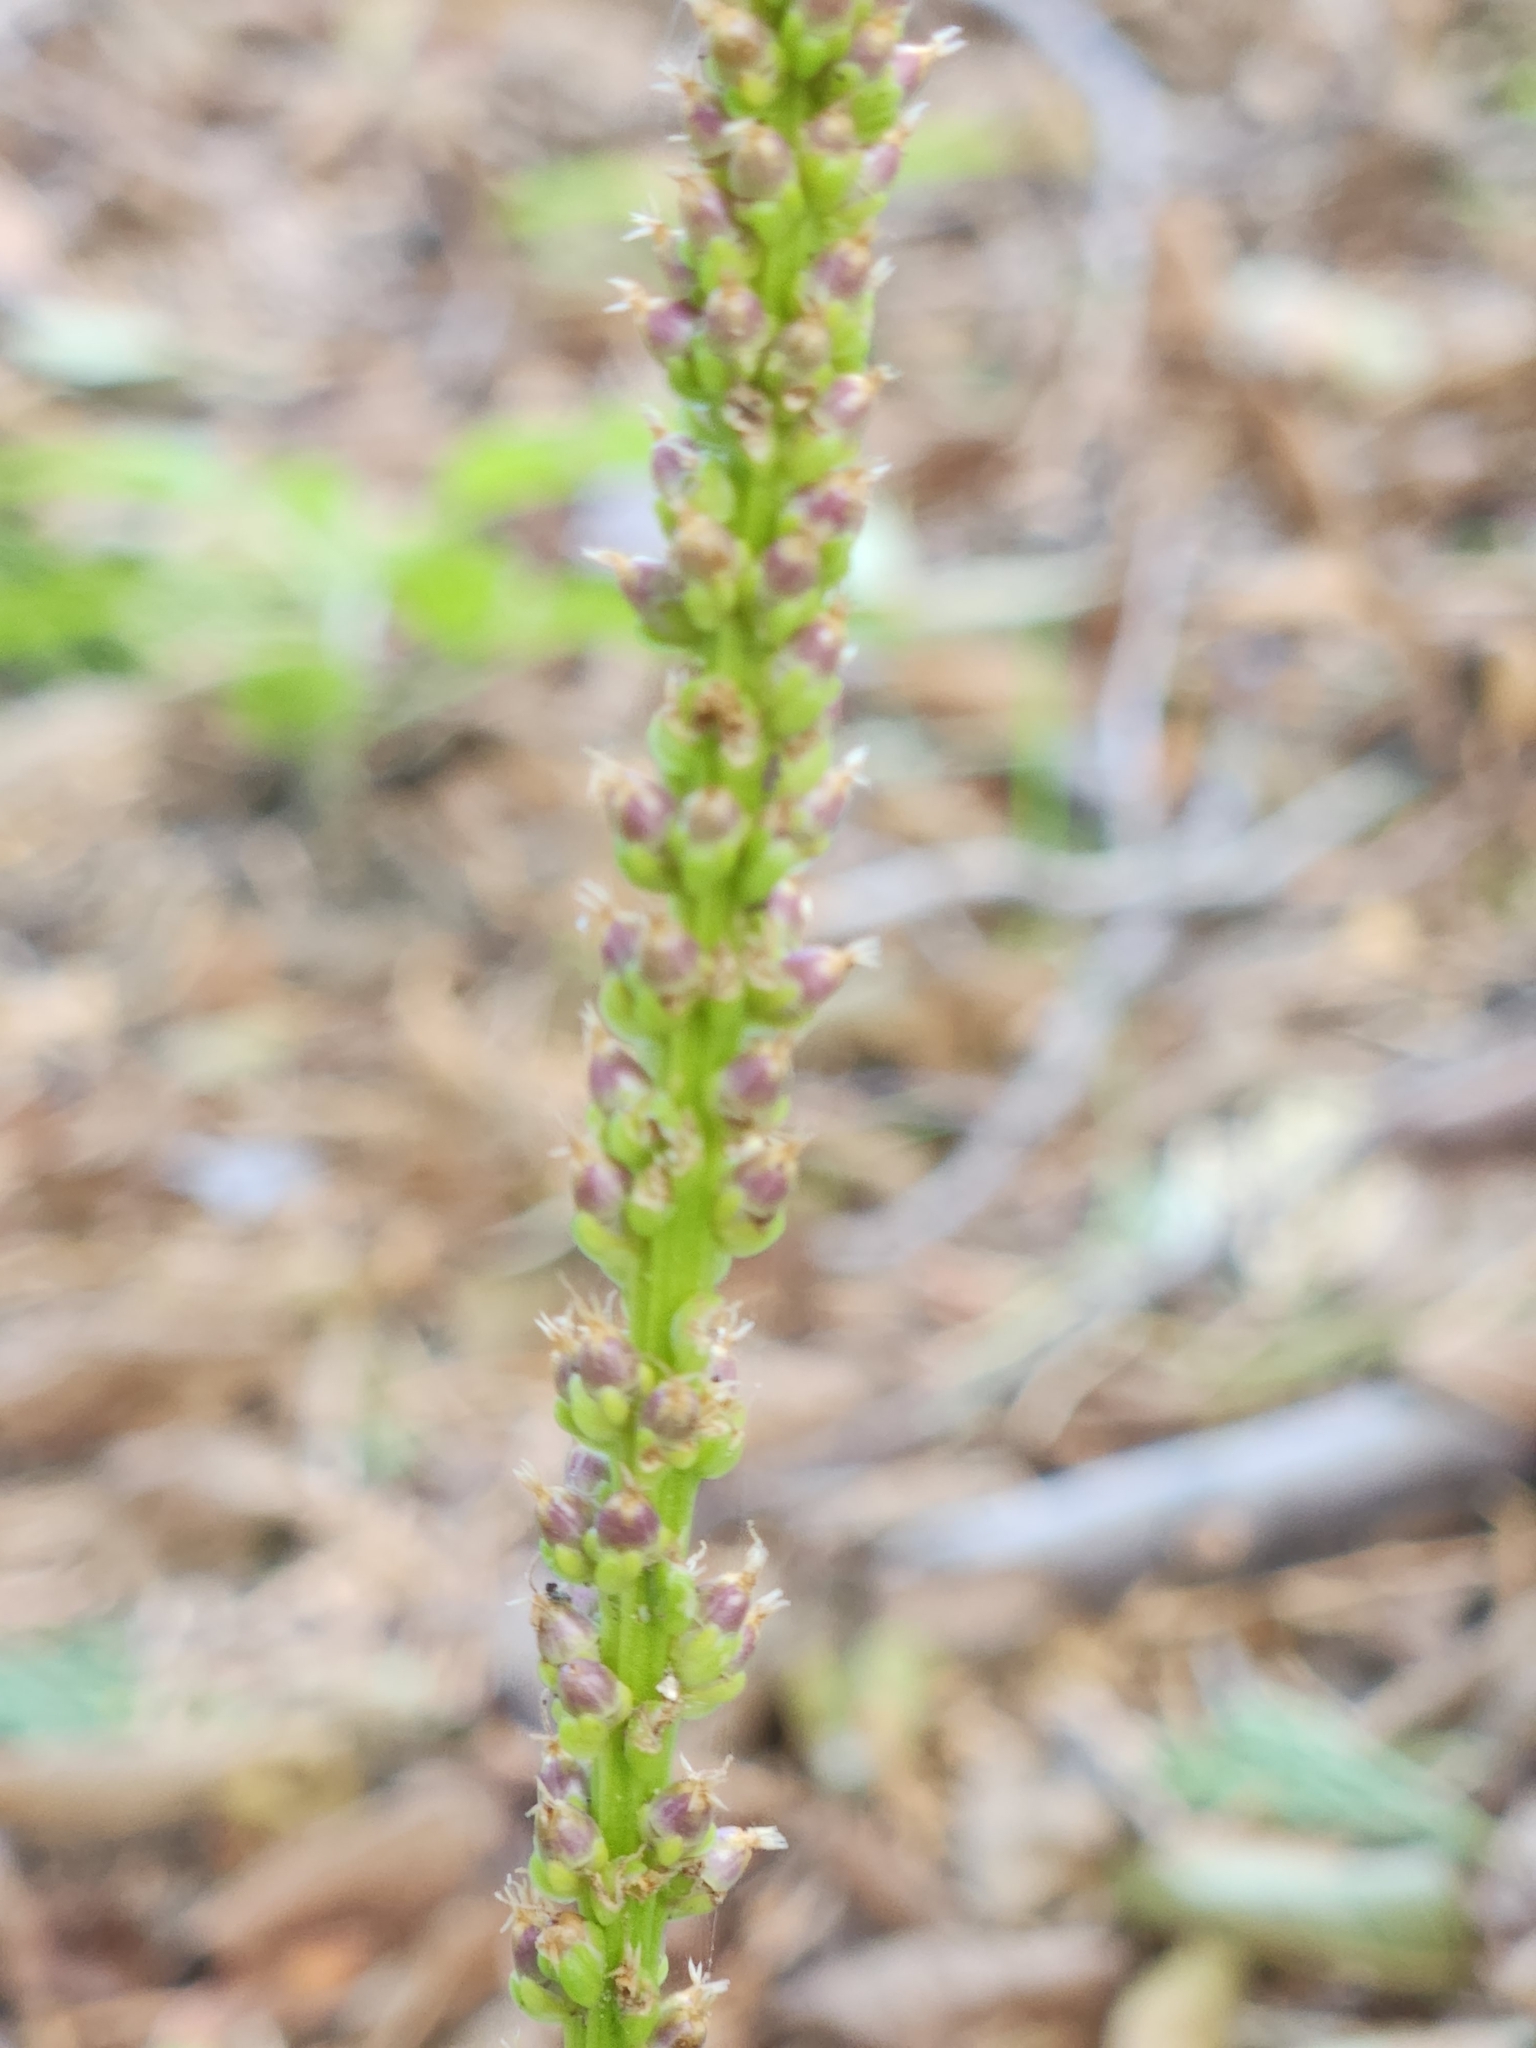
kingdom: Plantae
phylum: Tracheophyta
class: Magnoliopsida
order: Lamiales
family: Plantaginaceae
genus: Plantago
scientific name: Plantago major
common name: Common plantain
